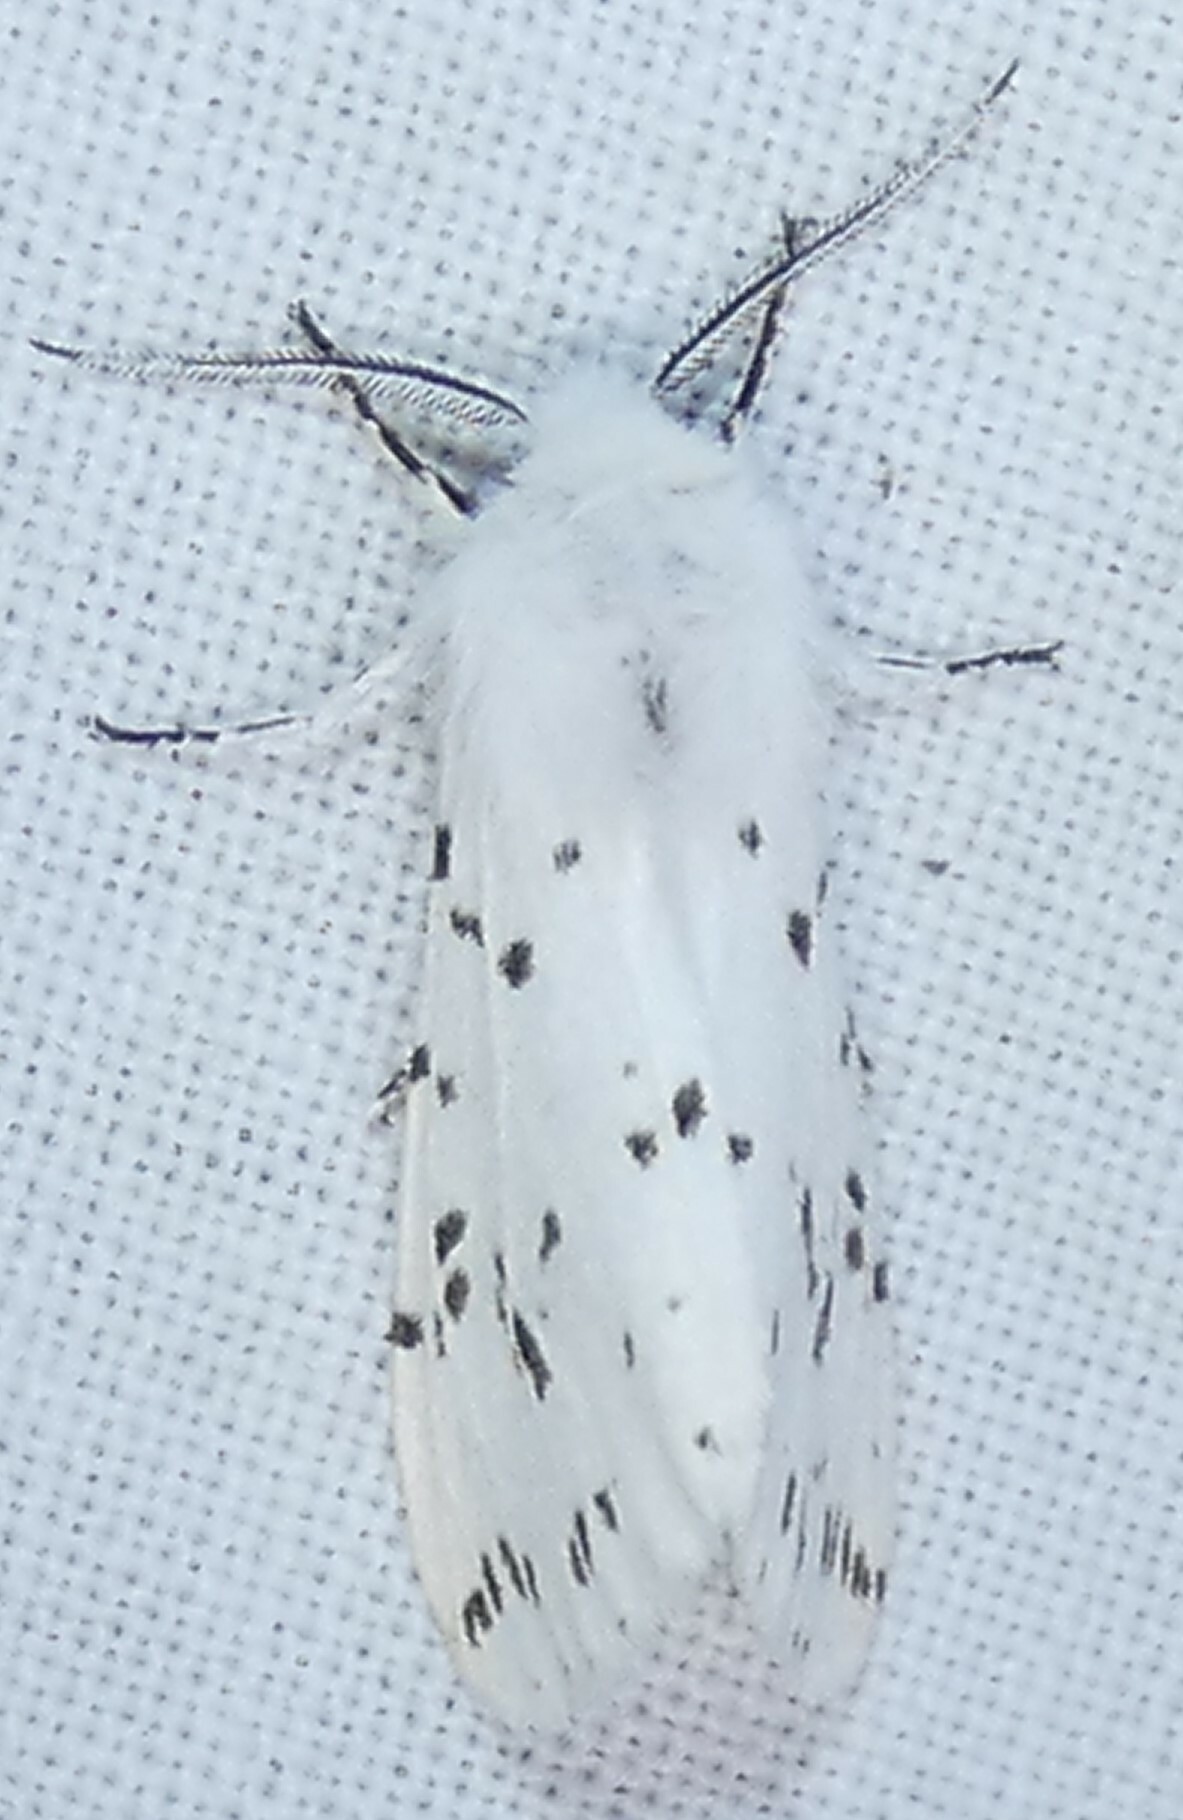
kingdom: Animalia
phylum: Arthropoda
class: Insecta
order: Lepidoptera
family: Erebidae
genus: Hyphantria
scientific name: Hyphantria cunea
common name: American white moth
